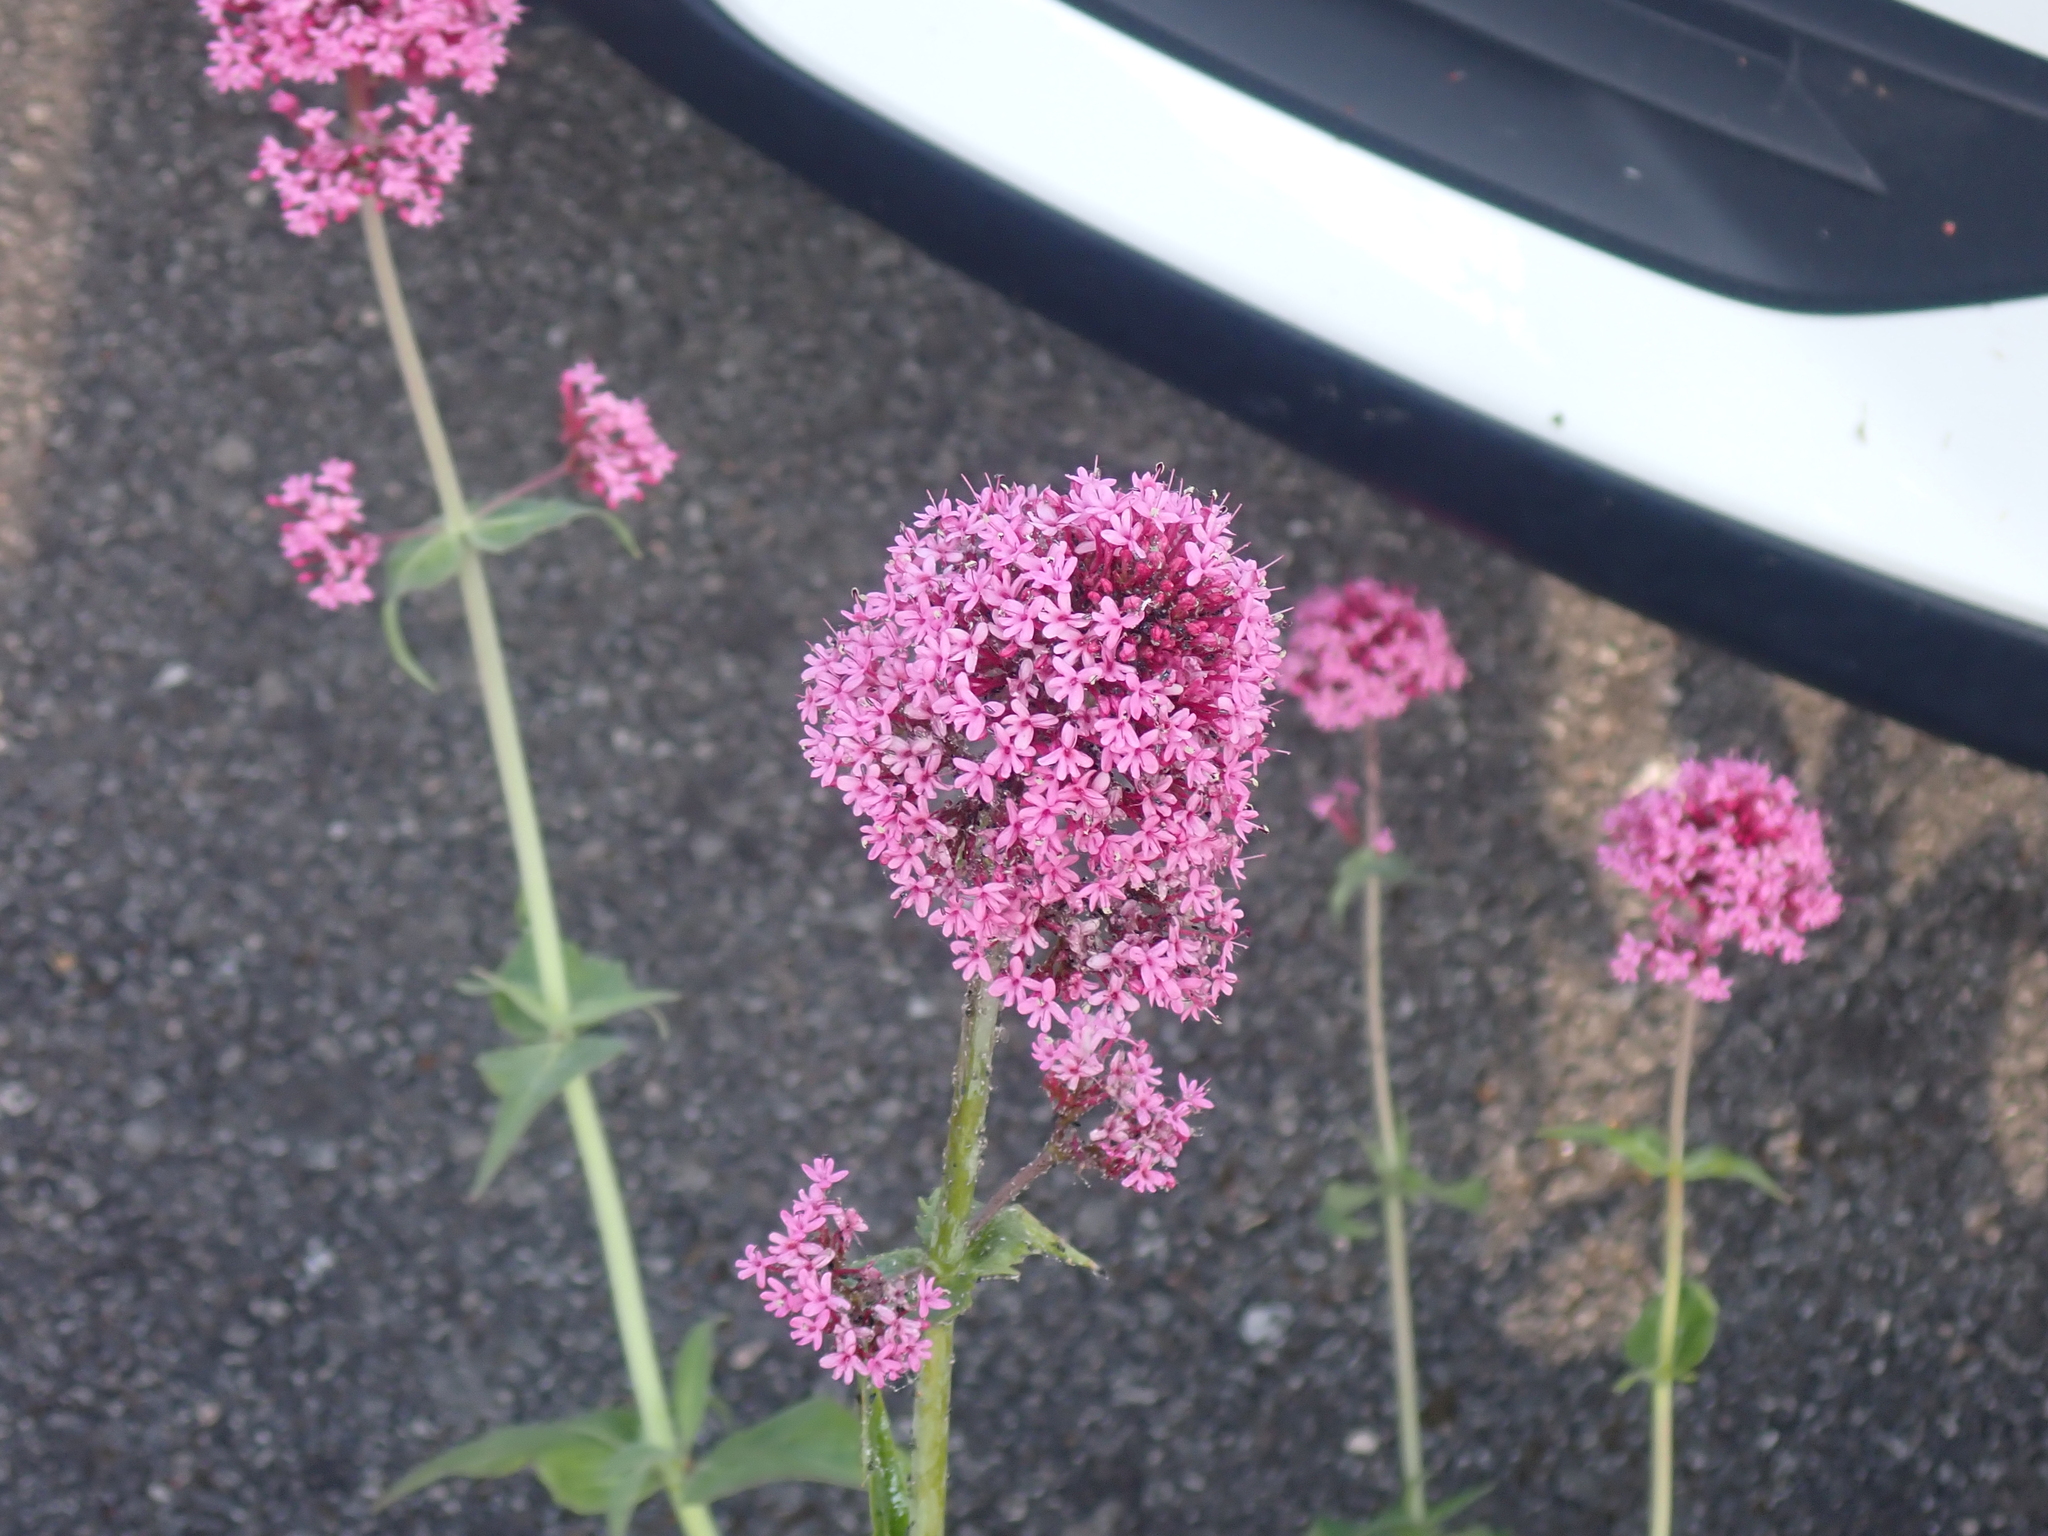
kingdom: Plantae
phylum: Tracheophyta
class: Magnoliopsida
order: Dipsacales
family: Caprifoliaceae
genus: Centranthus
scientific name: Centranthus ruber
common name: Red valerian
